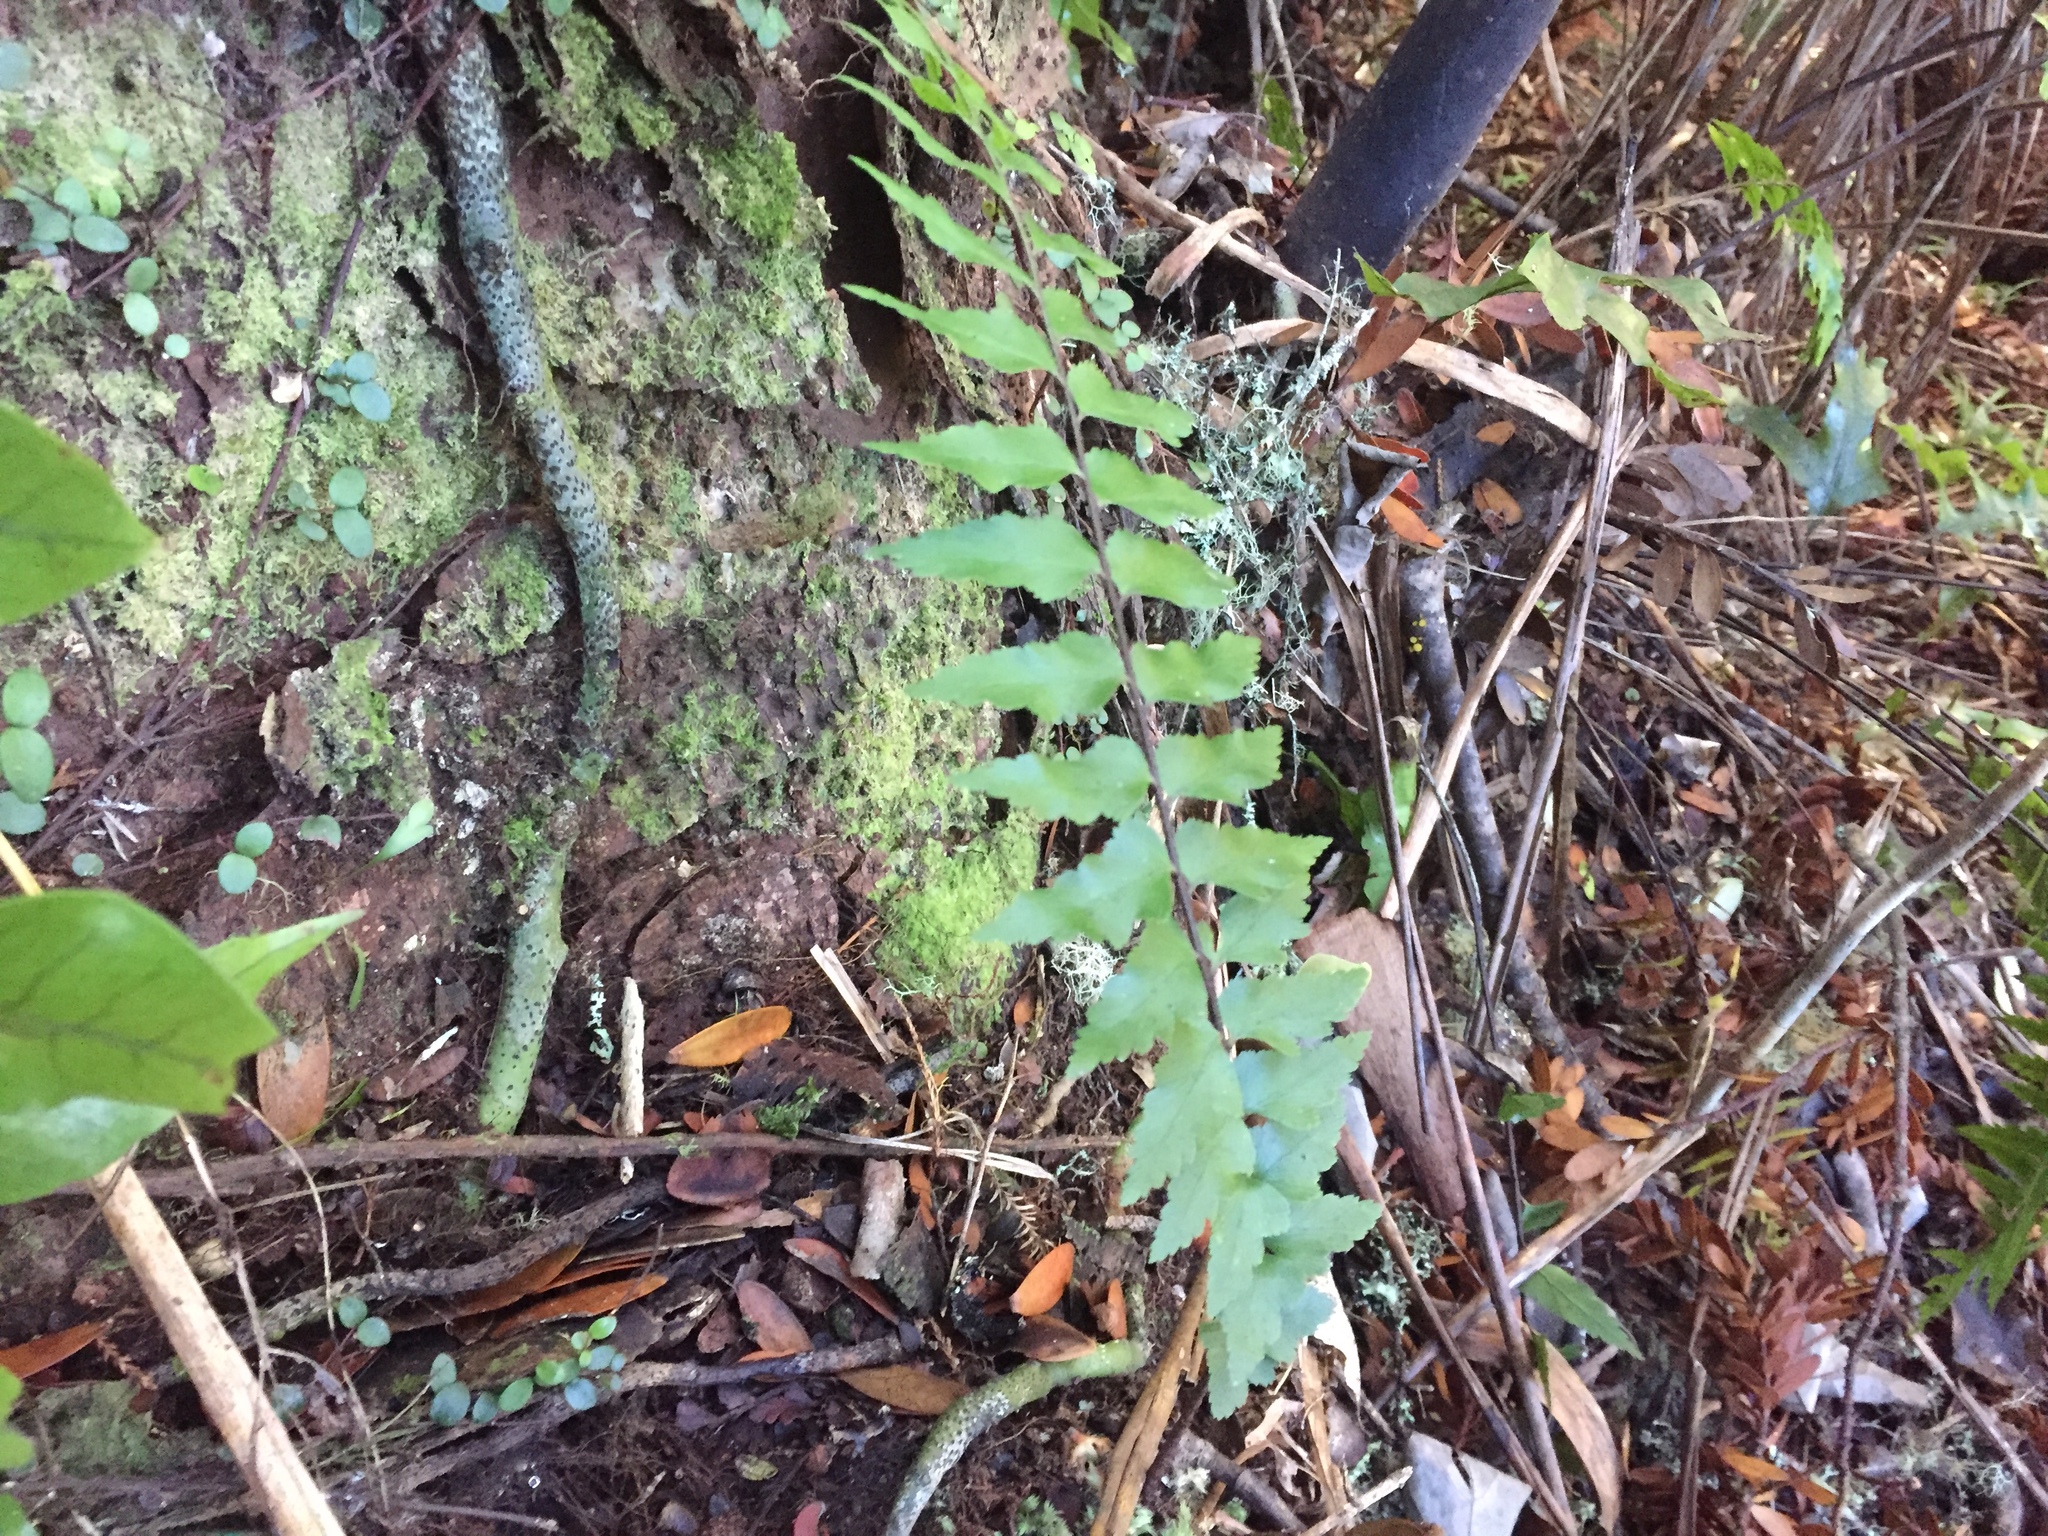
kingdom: Plantae
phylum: Tracheophyta
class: Polypodiopsida
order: Polypodiales
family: Aspleniaceae
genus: Asplenium
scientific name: Asplenium polyodon
